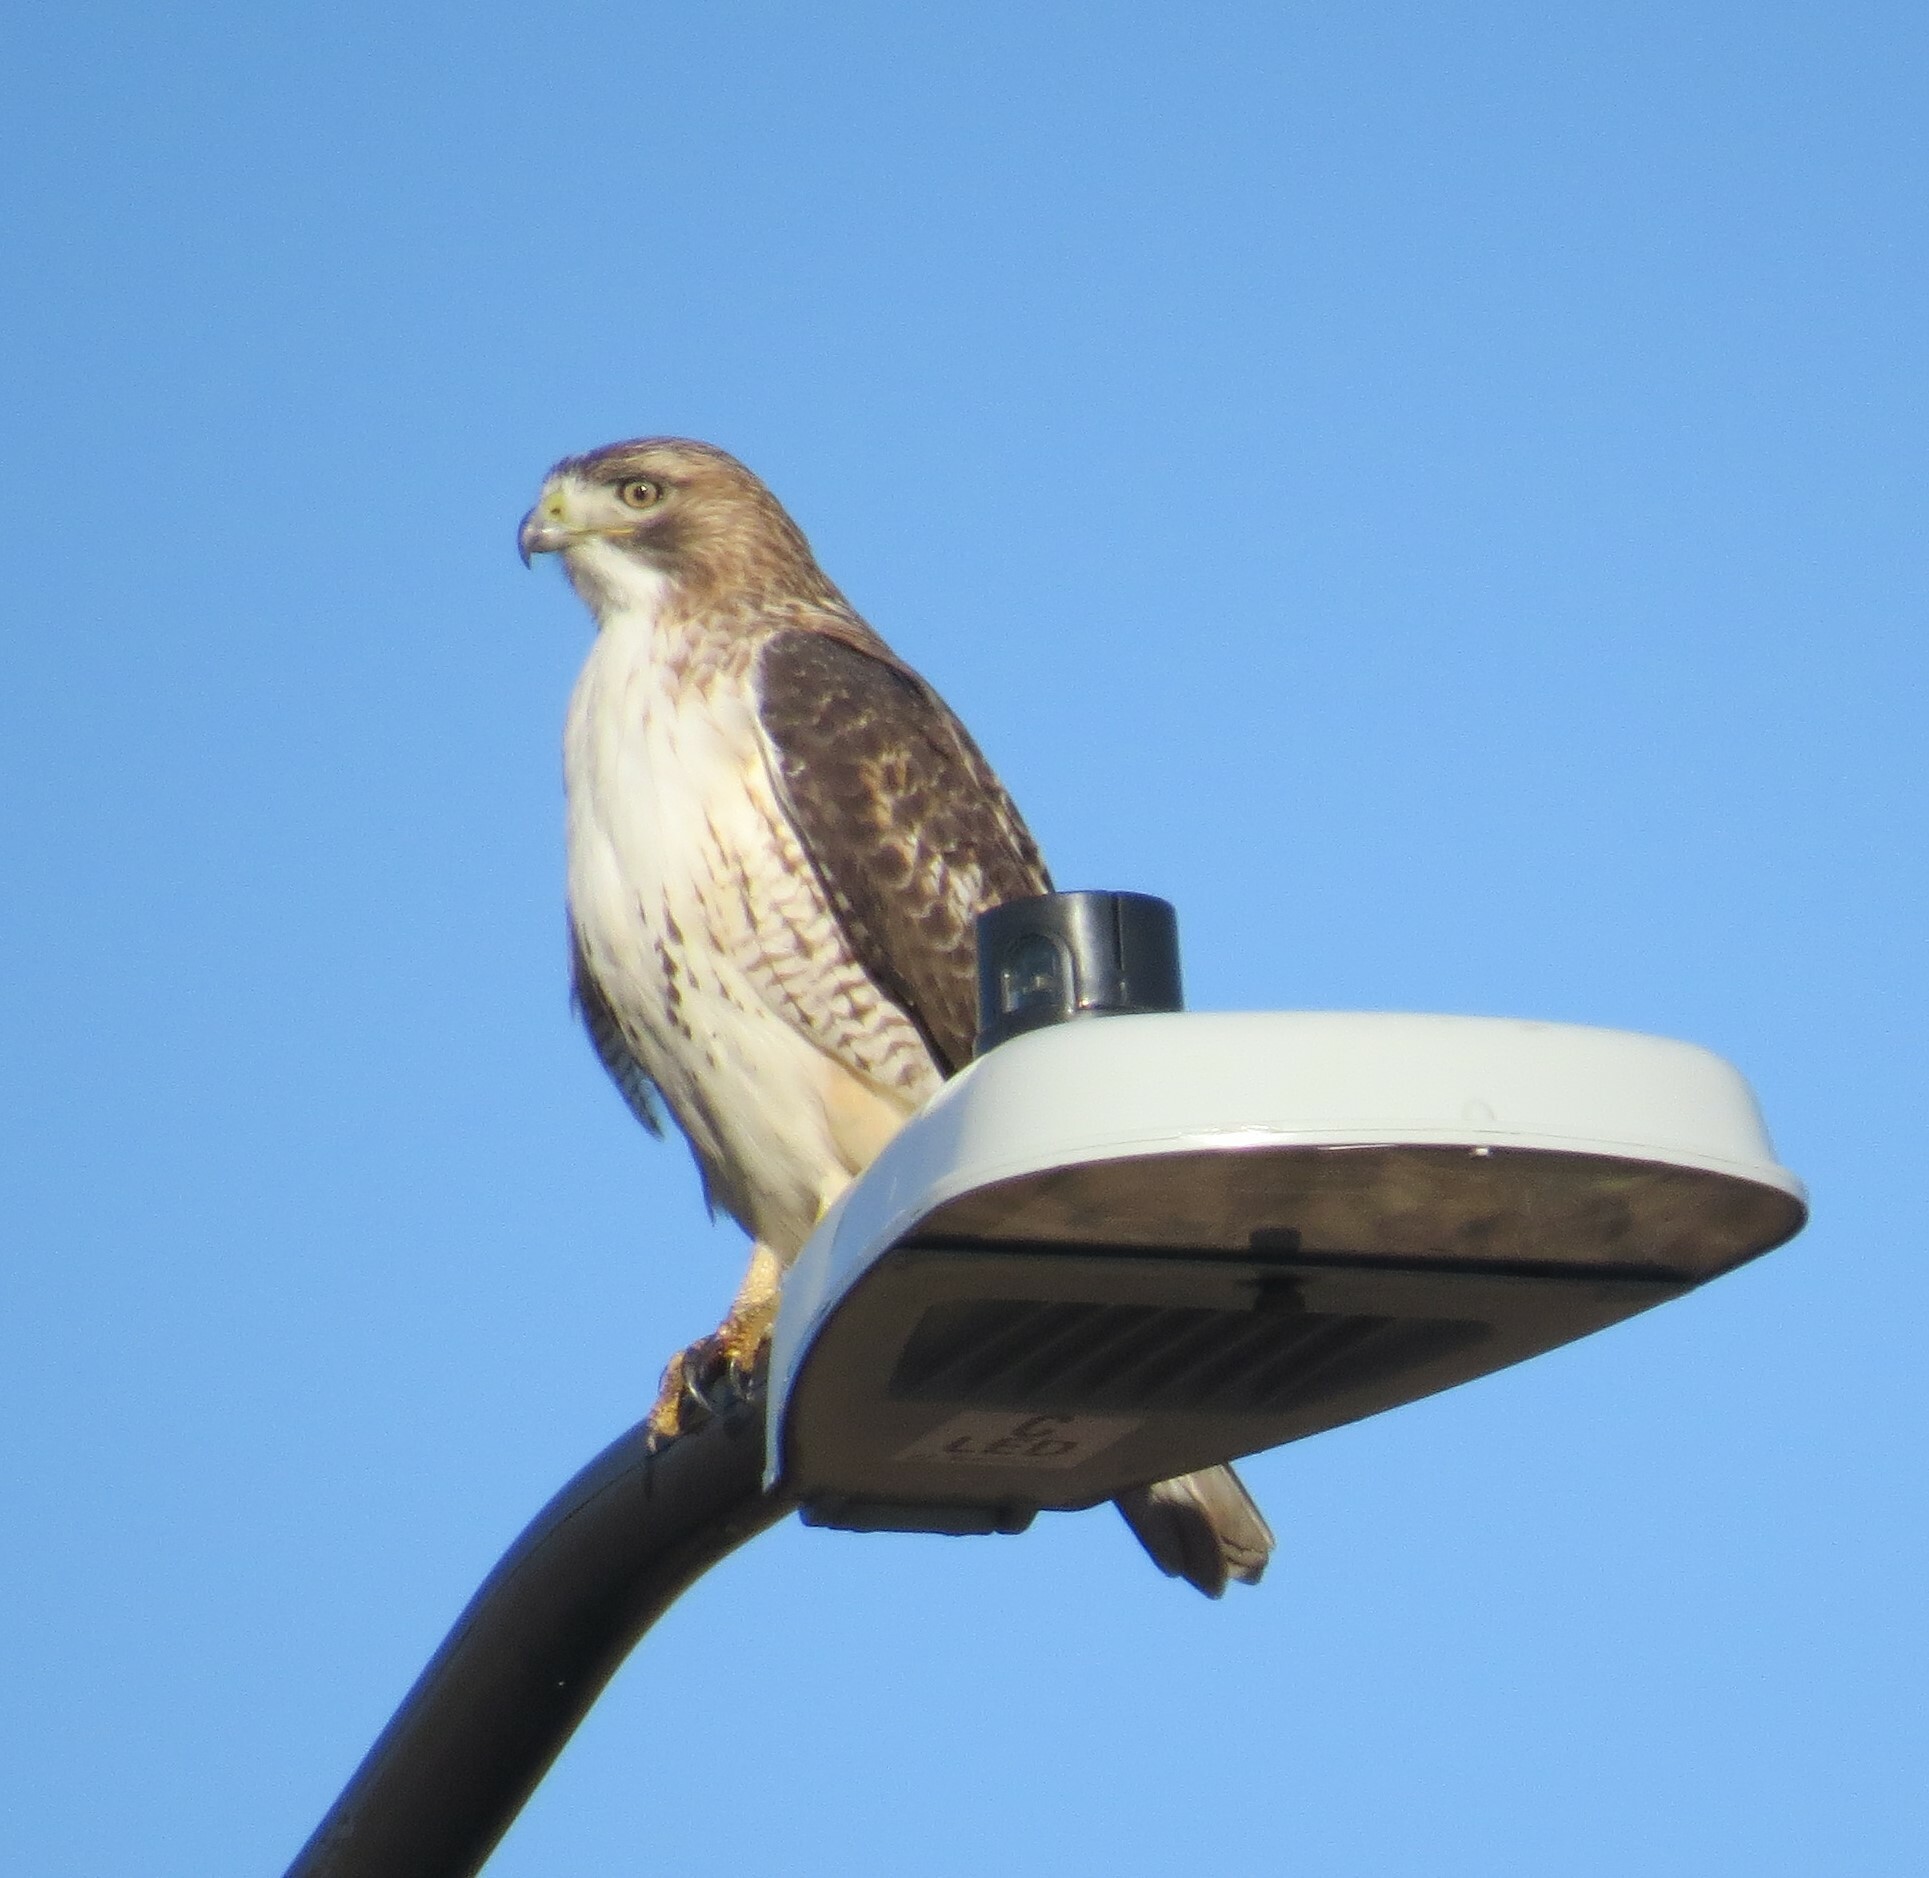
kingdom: Animalia
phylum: Chordata
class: Aves
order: Accipitriformes
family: Accipitridae
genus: Buteo
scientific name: Buteo jamaicensis
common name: Red-tailed hawk
